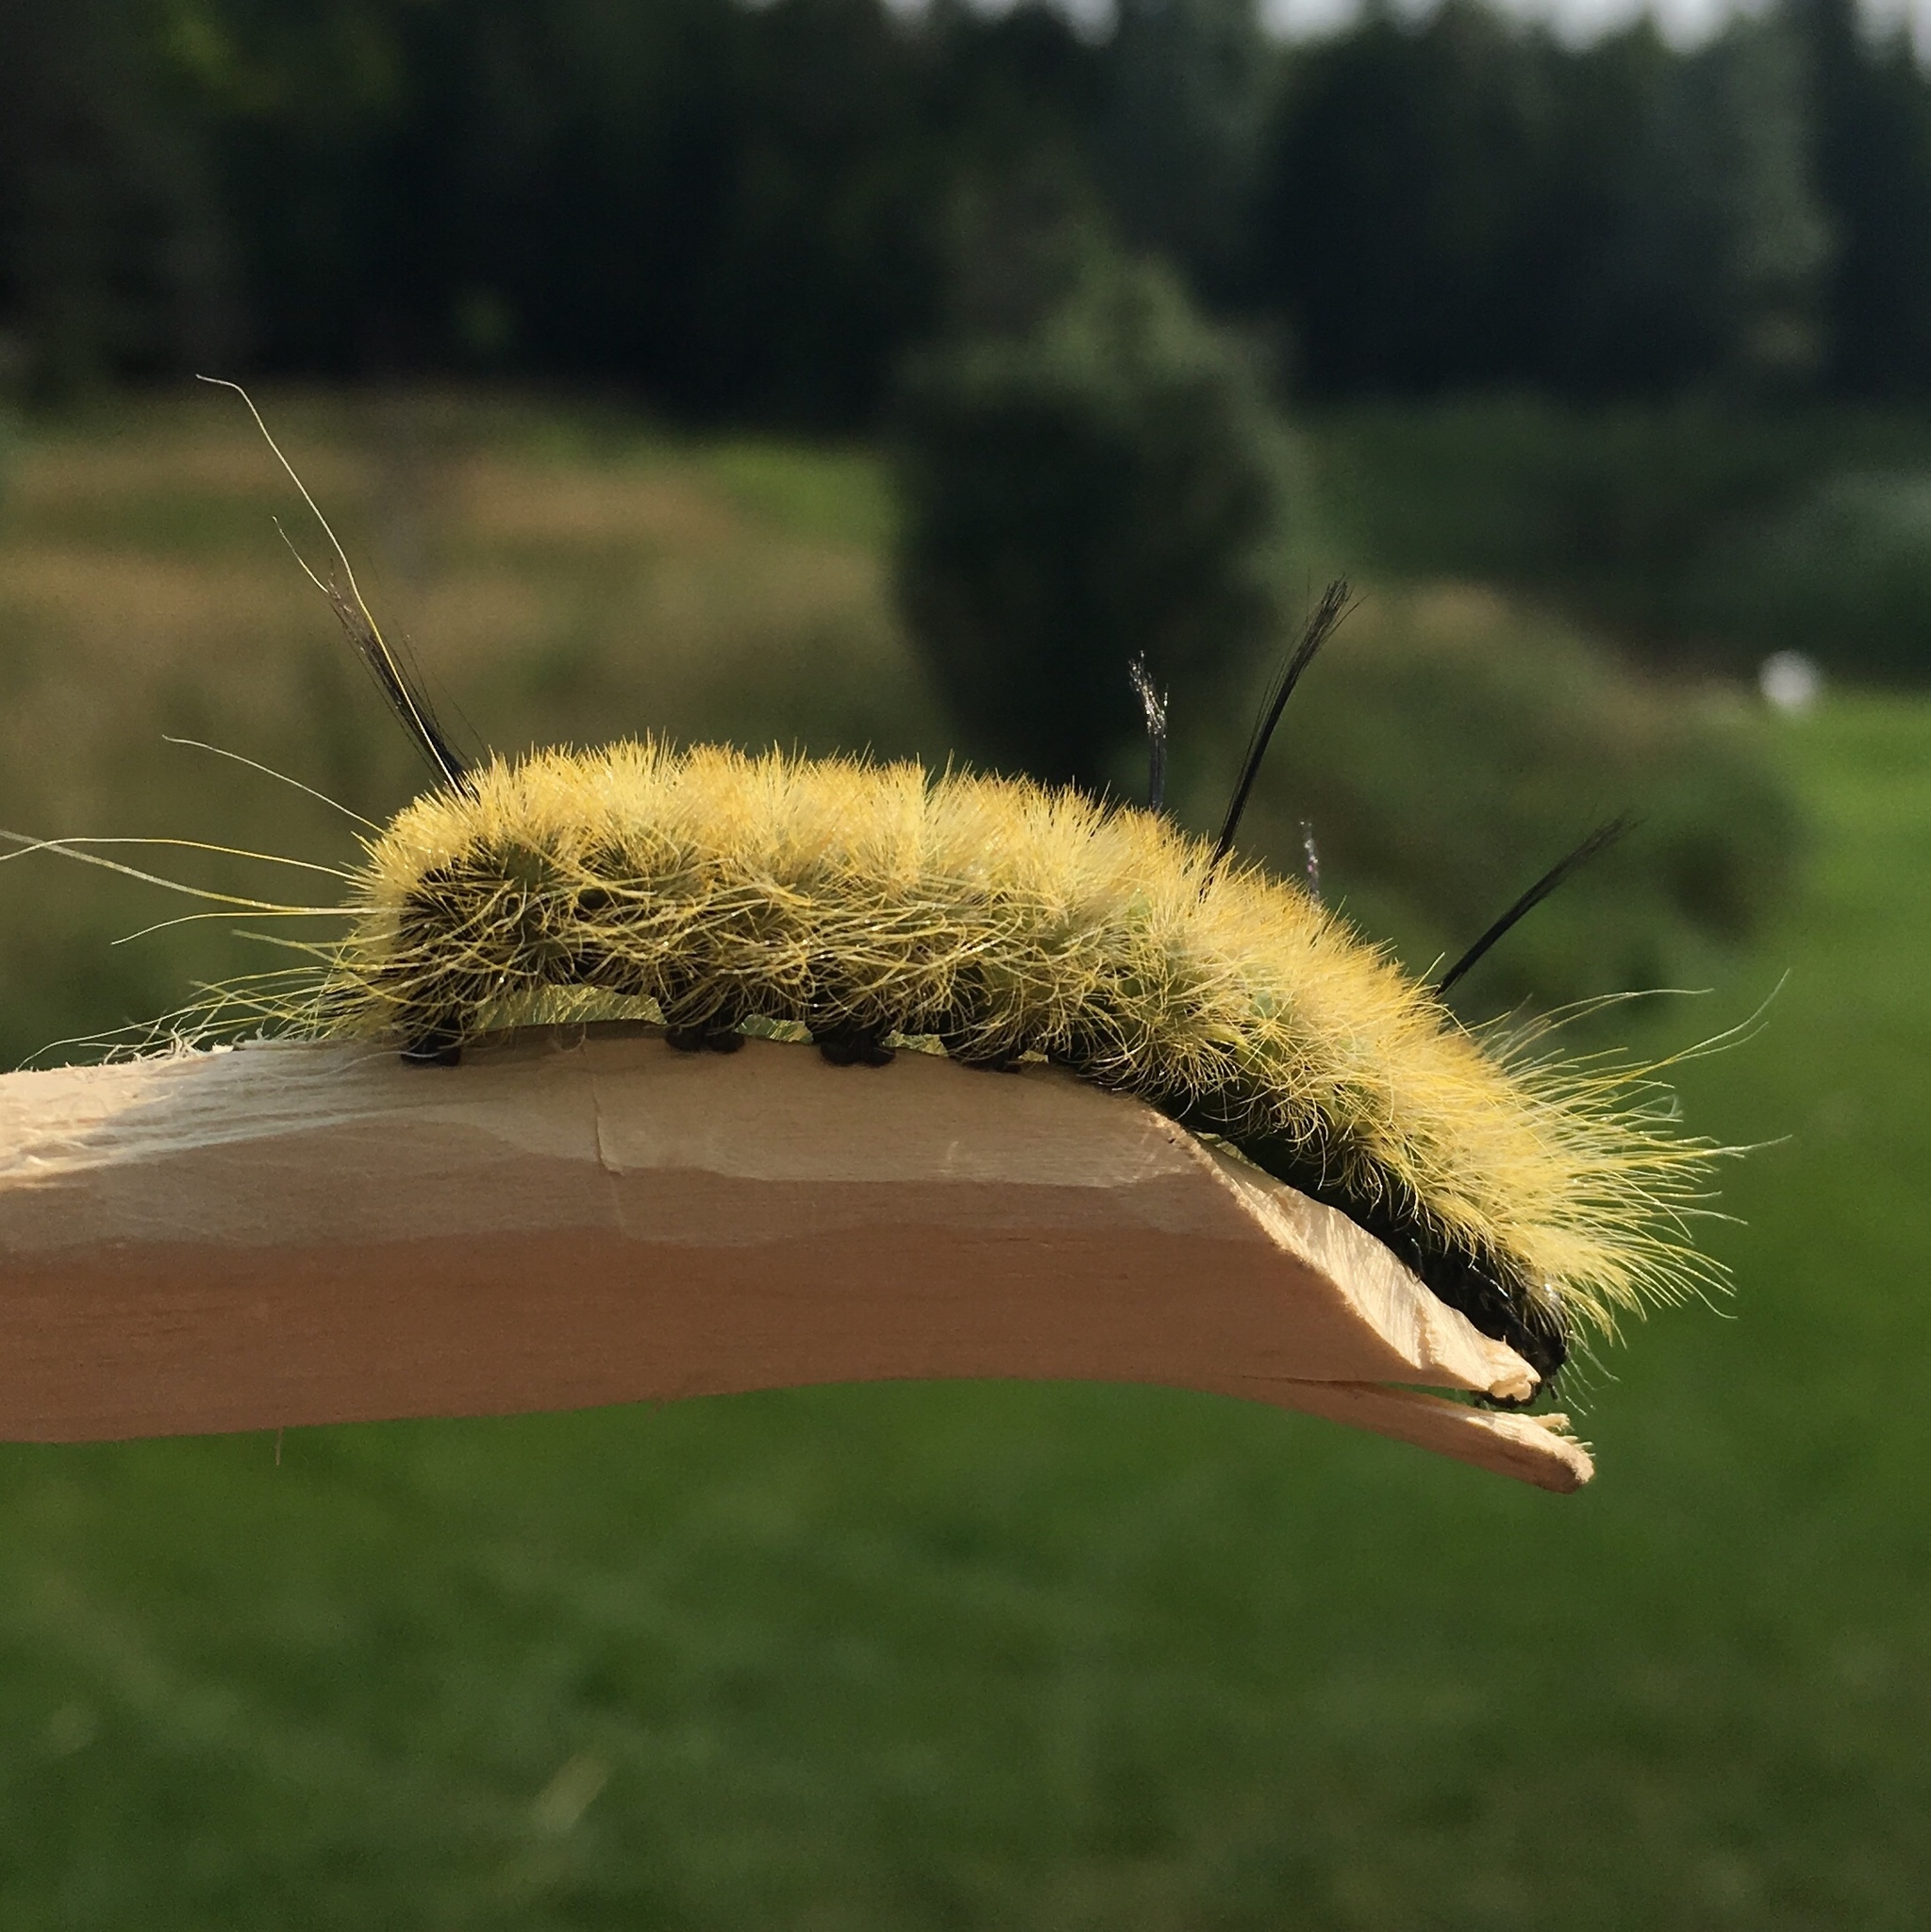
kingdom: Animalia
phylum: Arthropoda
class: Insecta
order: Lepidoptera
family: Noctuidae
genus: Acronicta
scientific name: Acronicta americana
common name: American dagger
